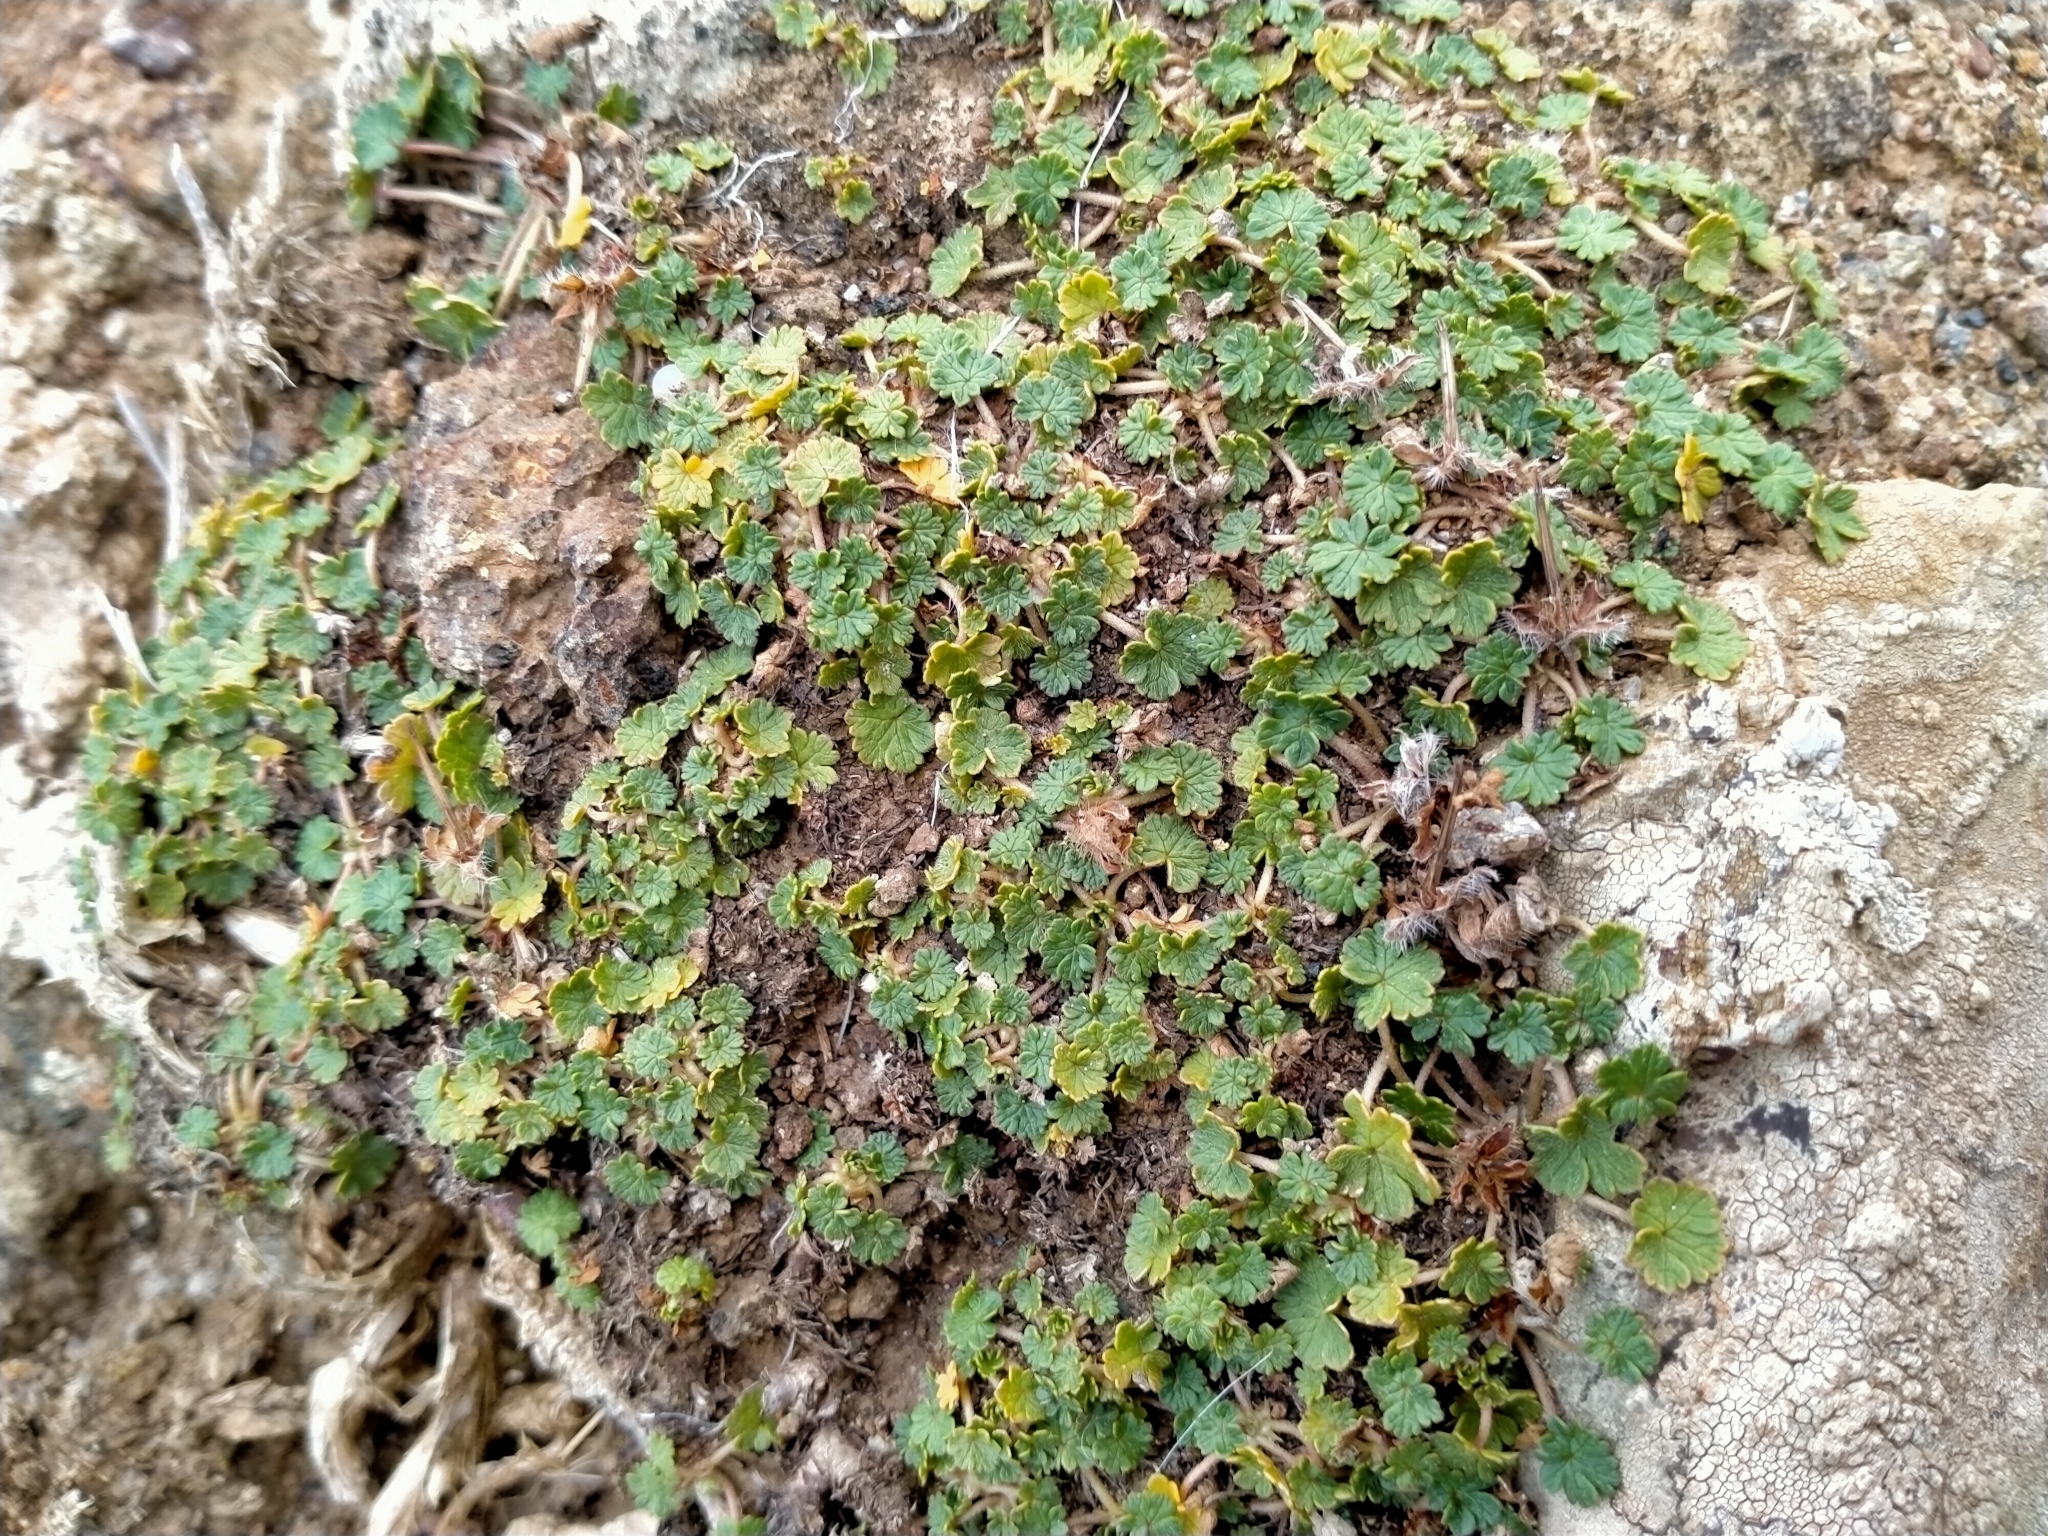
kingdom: Plantae
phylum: Tracheophyta
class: Magnoliopsida
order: Geraniales
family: Geraniaceae
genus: Geranium
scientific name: Geranium brevicaule
